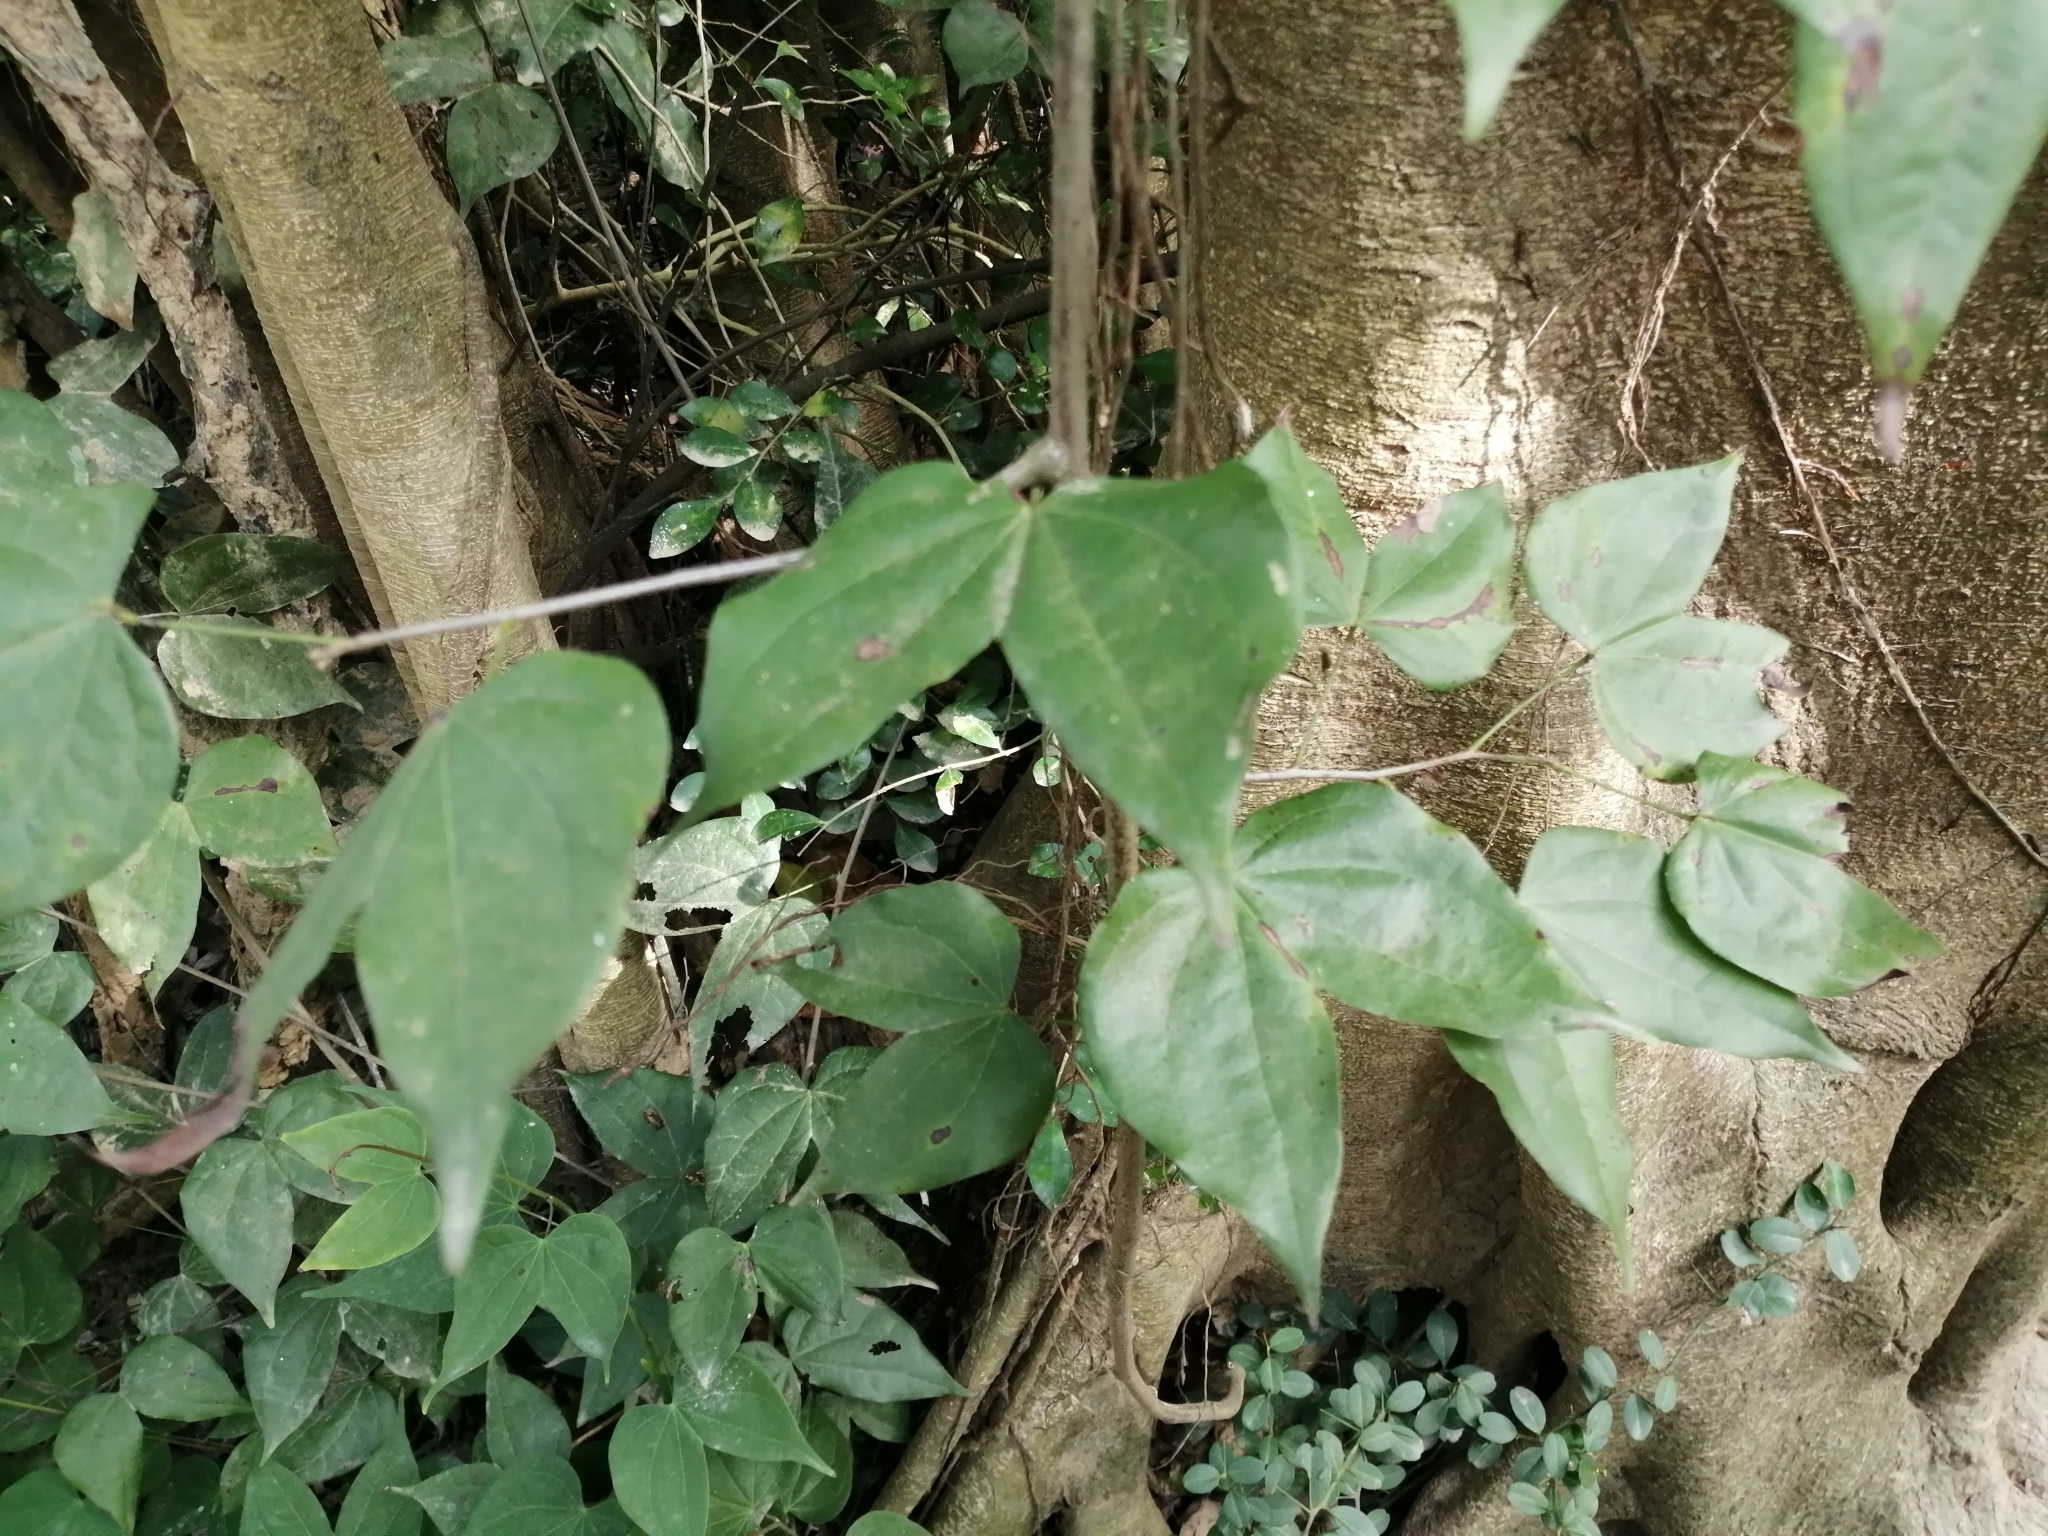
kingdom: Plantae
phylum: Tracheophyta
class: Magnoliopsida
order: Fabales
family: Fabaceae
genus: Phanera
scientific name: Phanera championii
